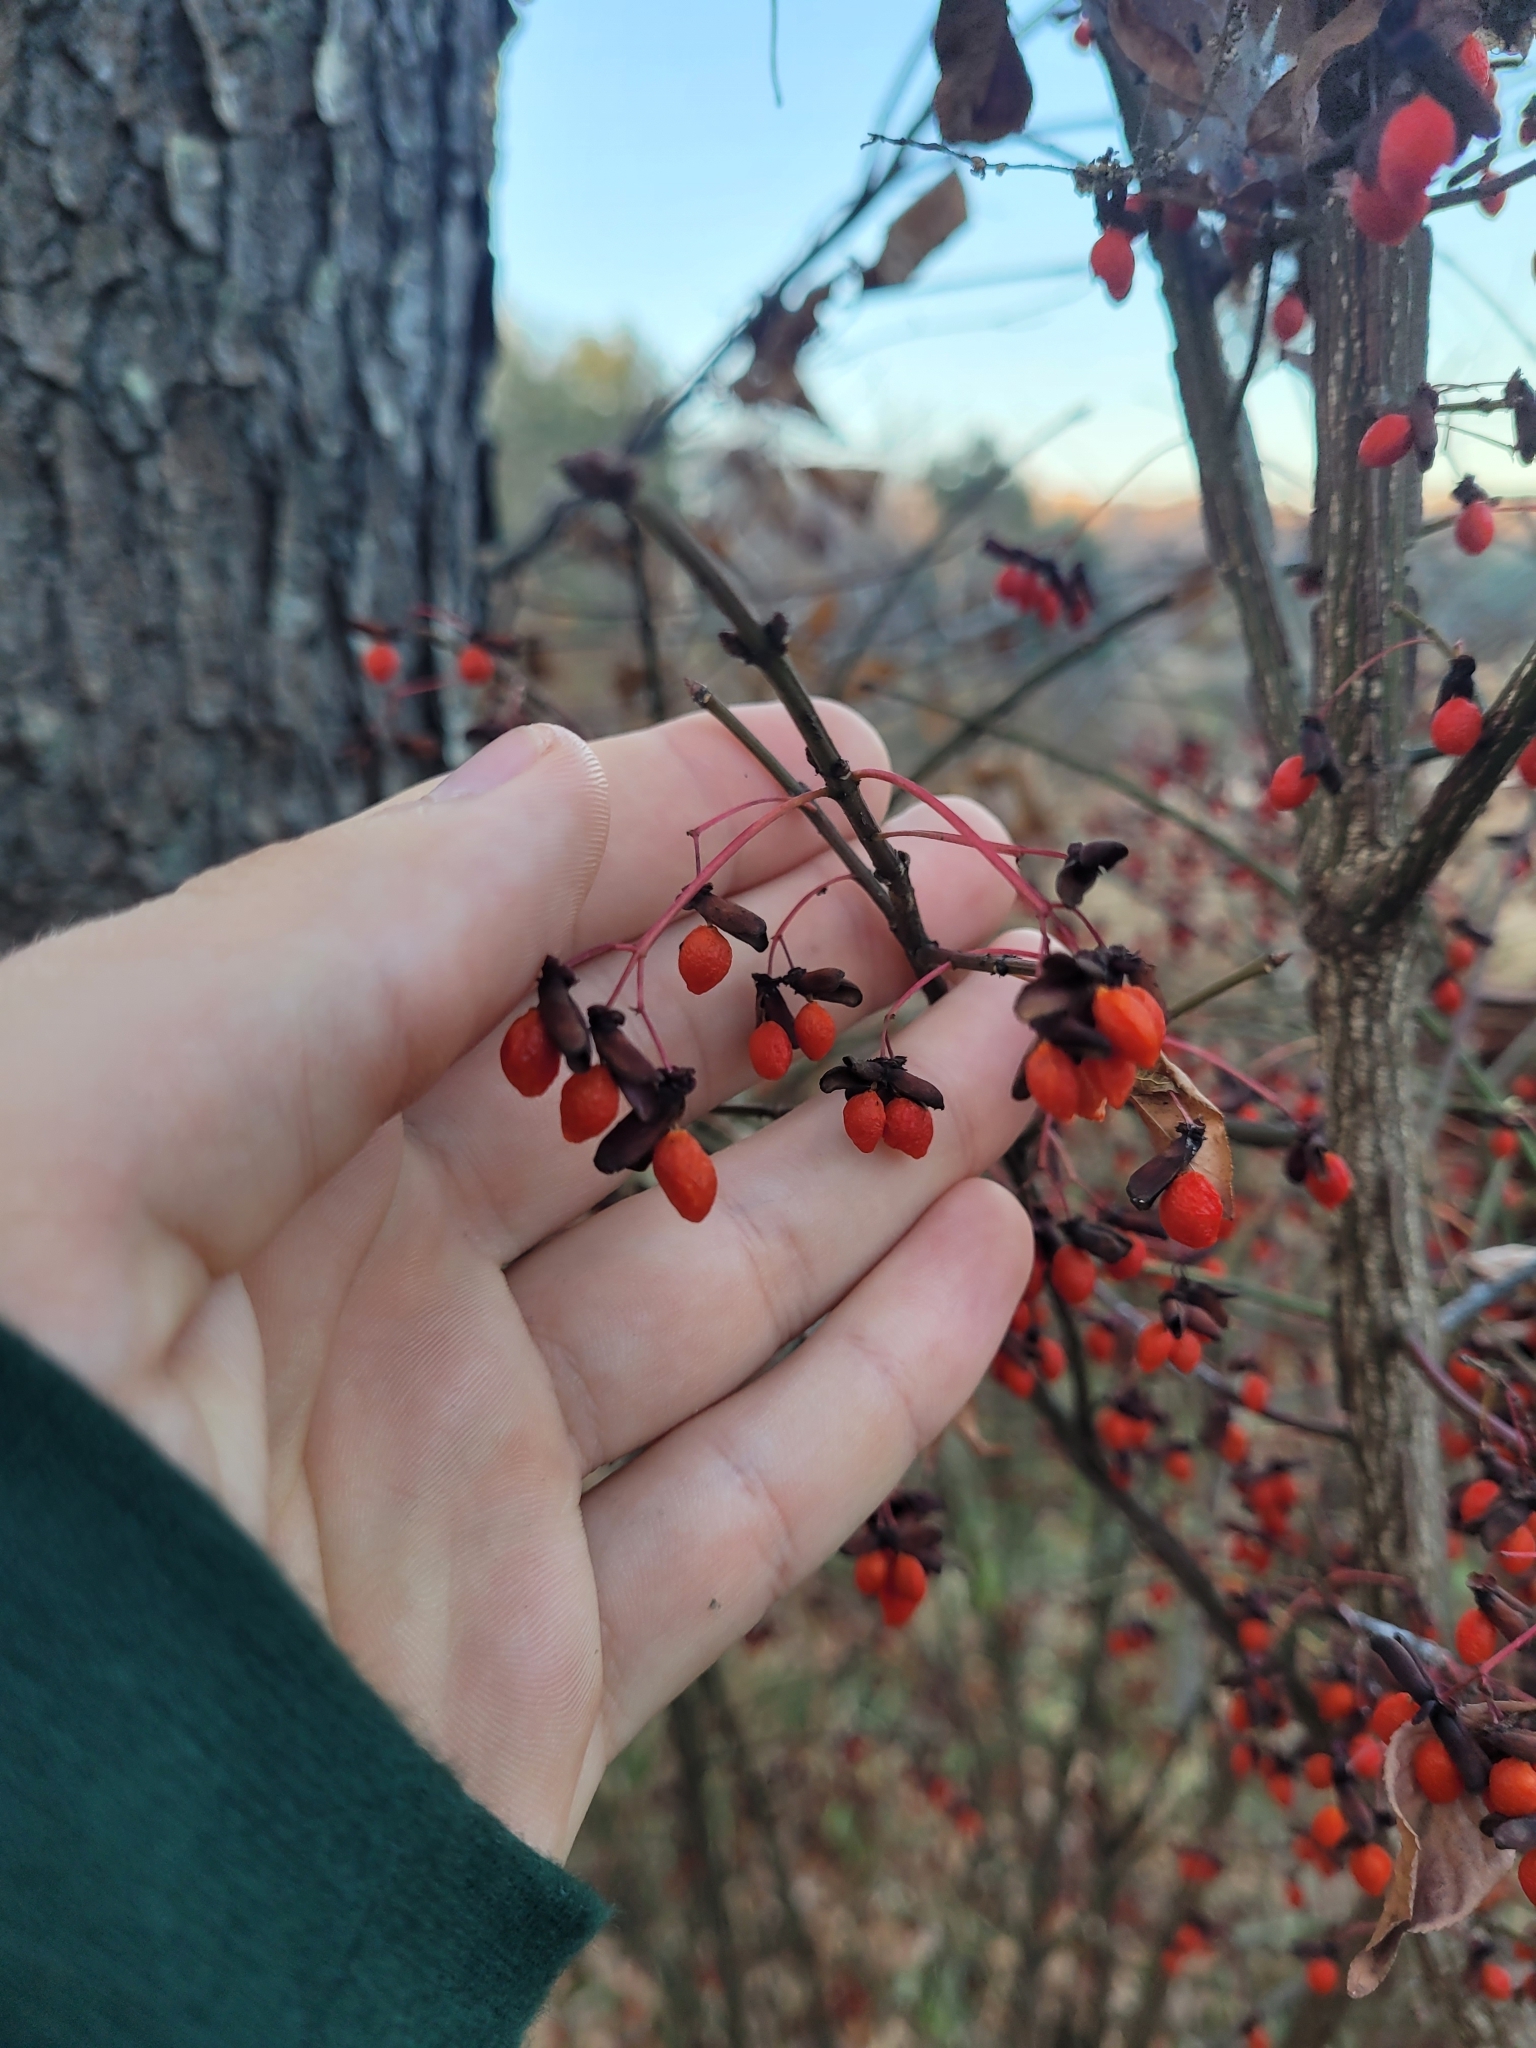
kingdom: Plantae
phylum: Tracheophyta
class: Magnoliopsida
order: Celastrales
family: Celastraceae
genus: Euonymus
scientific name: Euonymus alatus
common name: Winged euonymus
